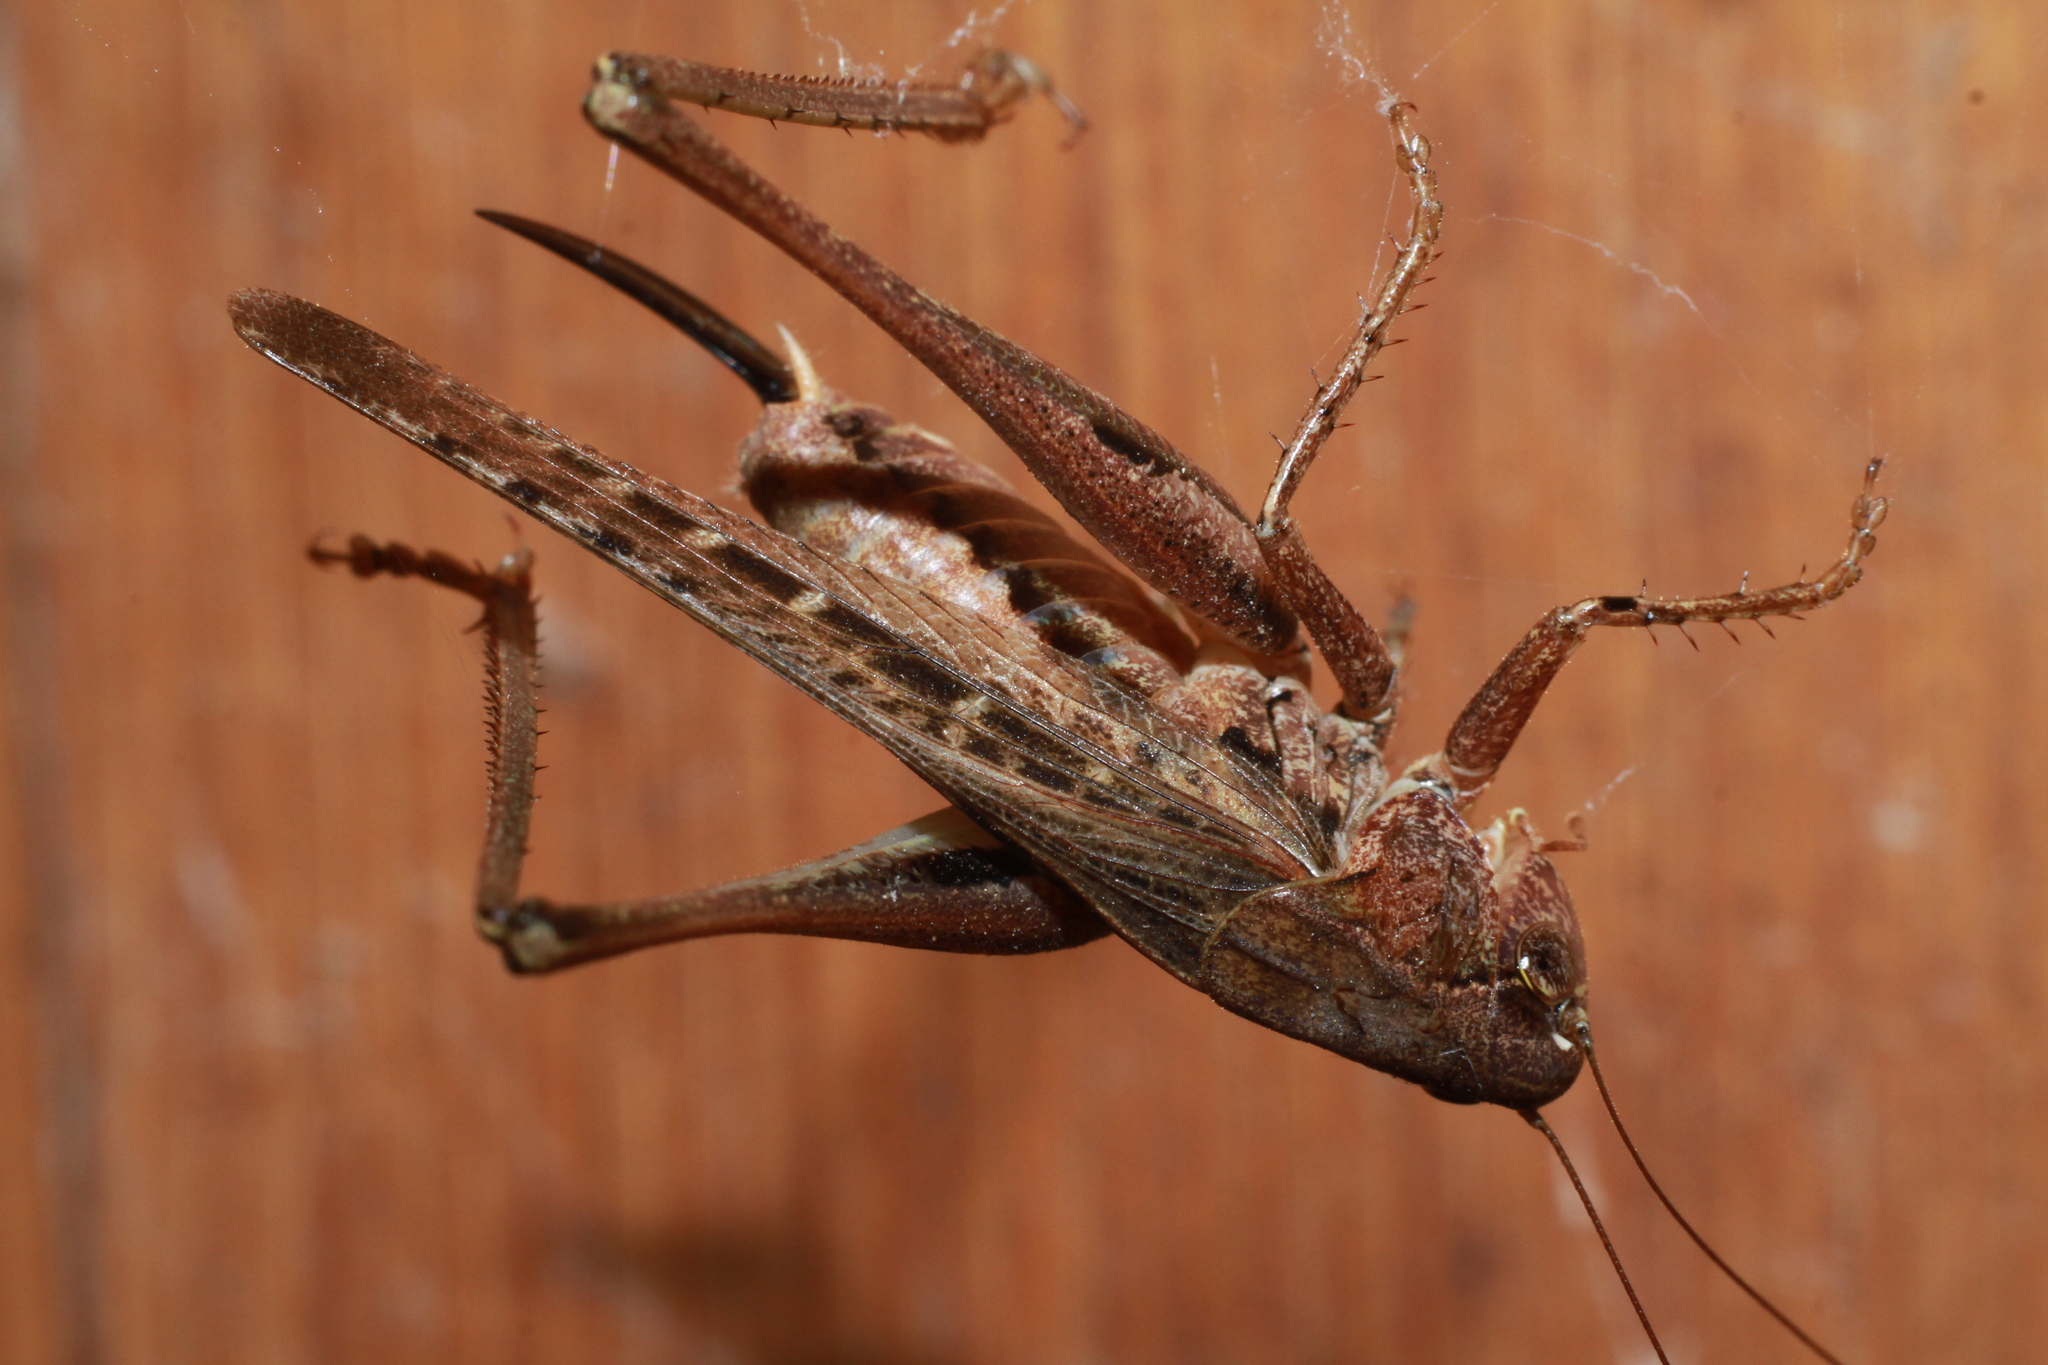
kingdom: Animalia
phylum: Arthropoda
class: Insecta
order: Orthoptera
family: Tettigoniidae
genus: Platycleis
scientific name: Platycleis albopunctata
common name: Grey bush-cricket
